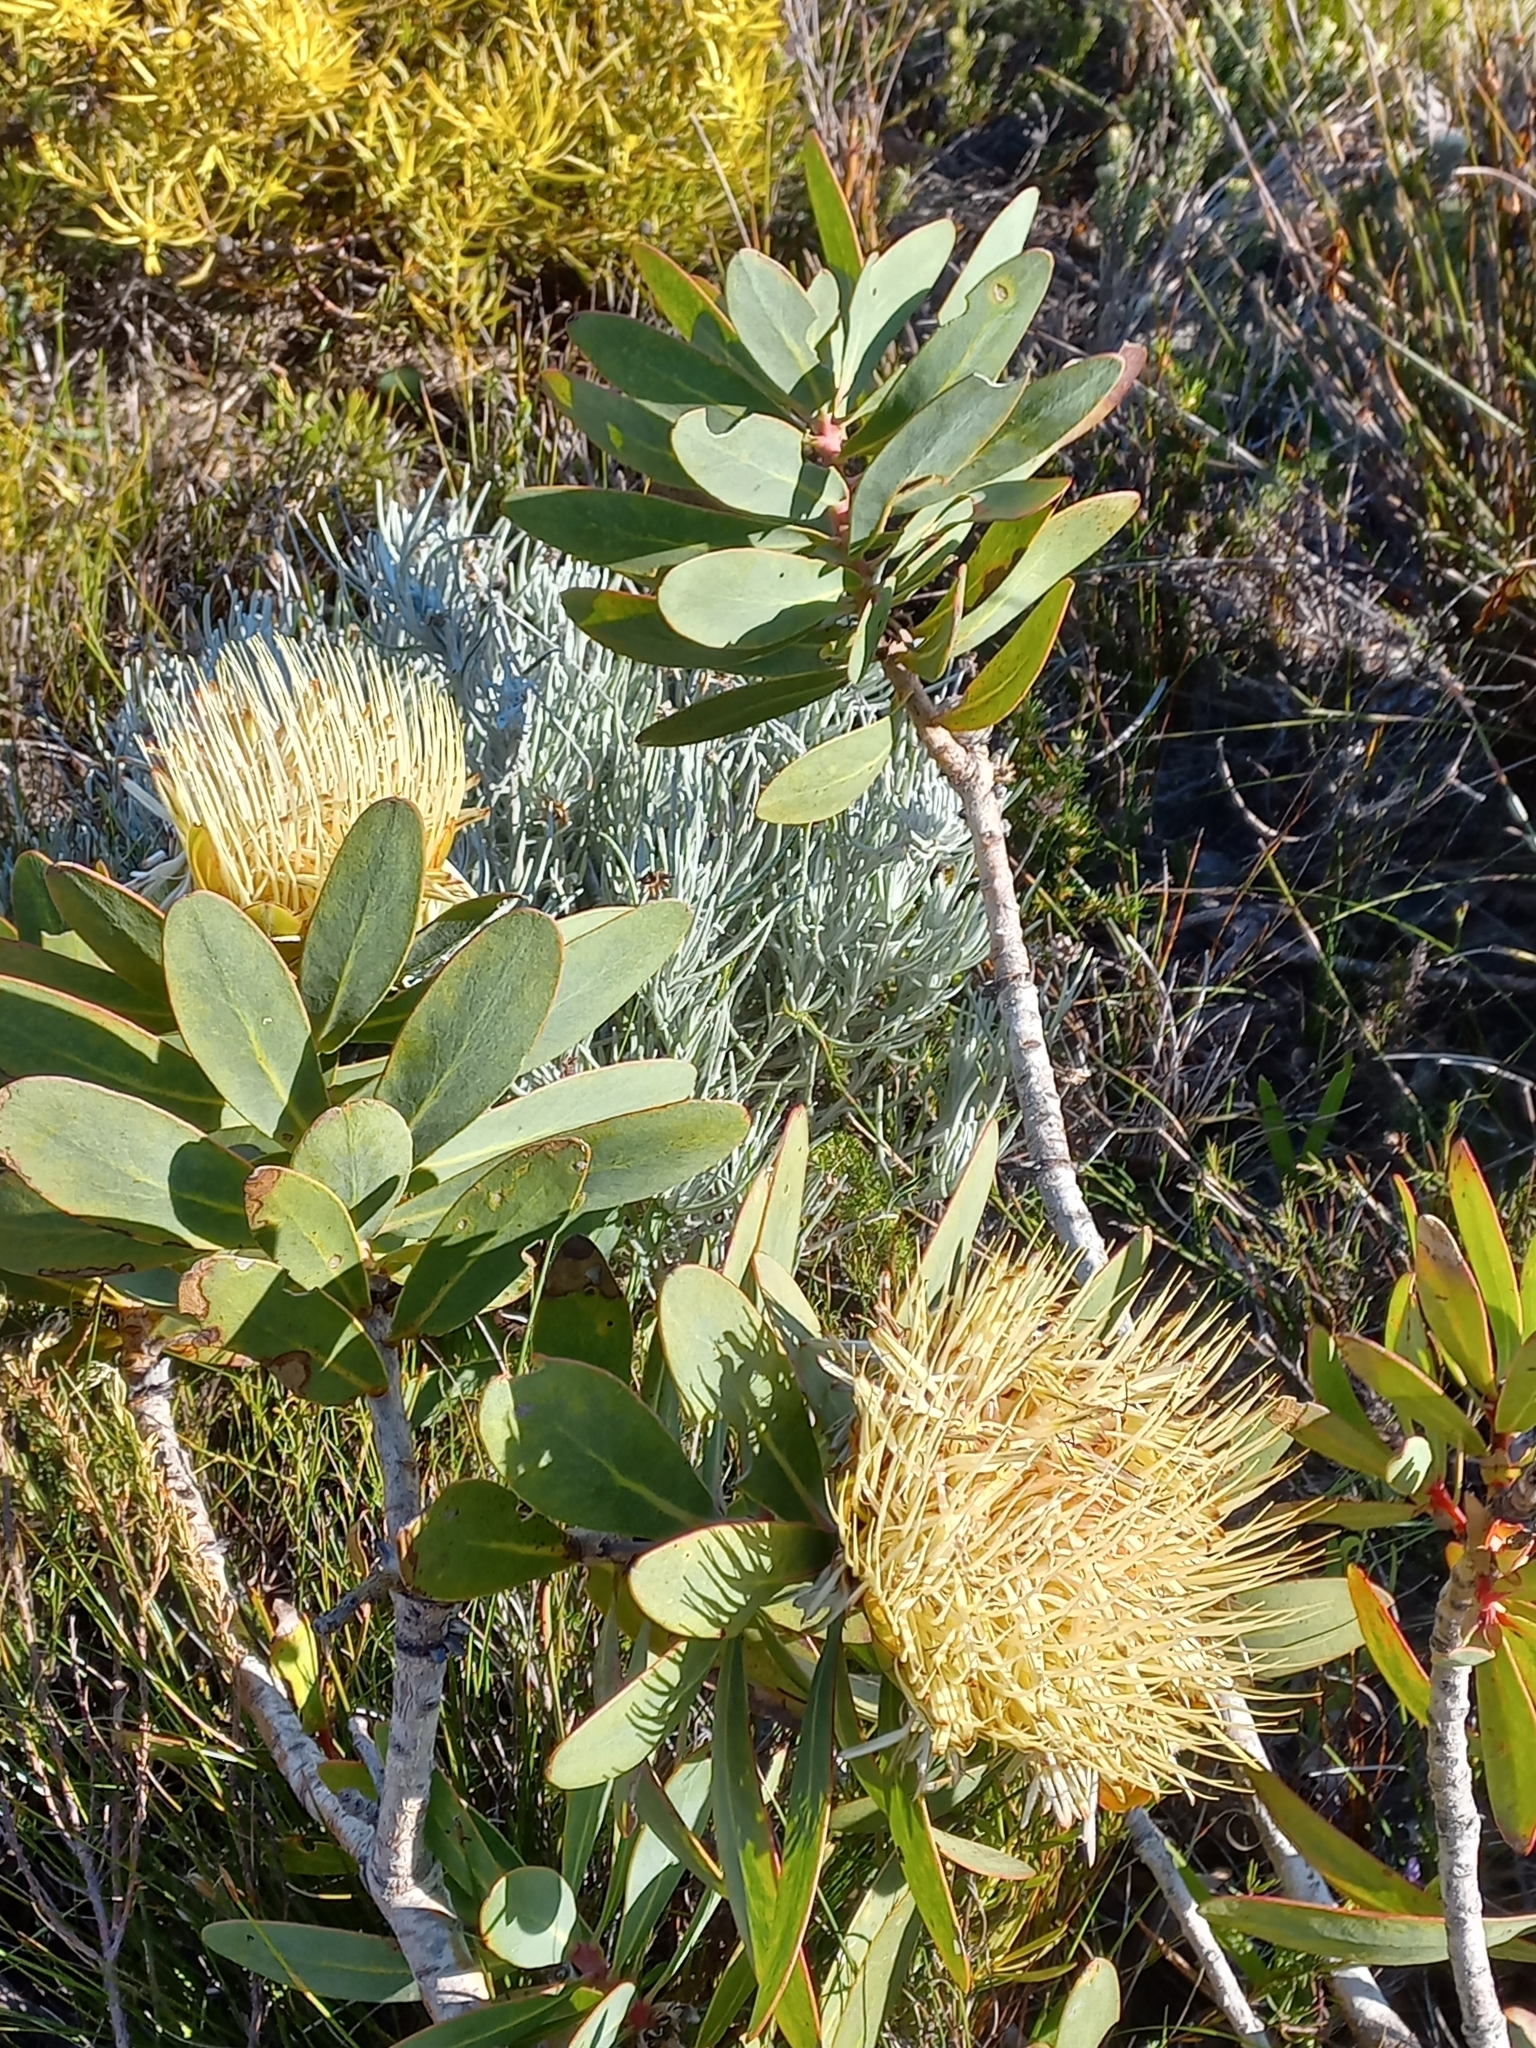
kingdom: Plantae
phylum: Tracheophyta
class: Magnoliopsida
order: Proteales
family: Proteaceae
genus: Protea
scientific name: Protea nitida
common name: Tree protea
